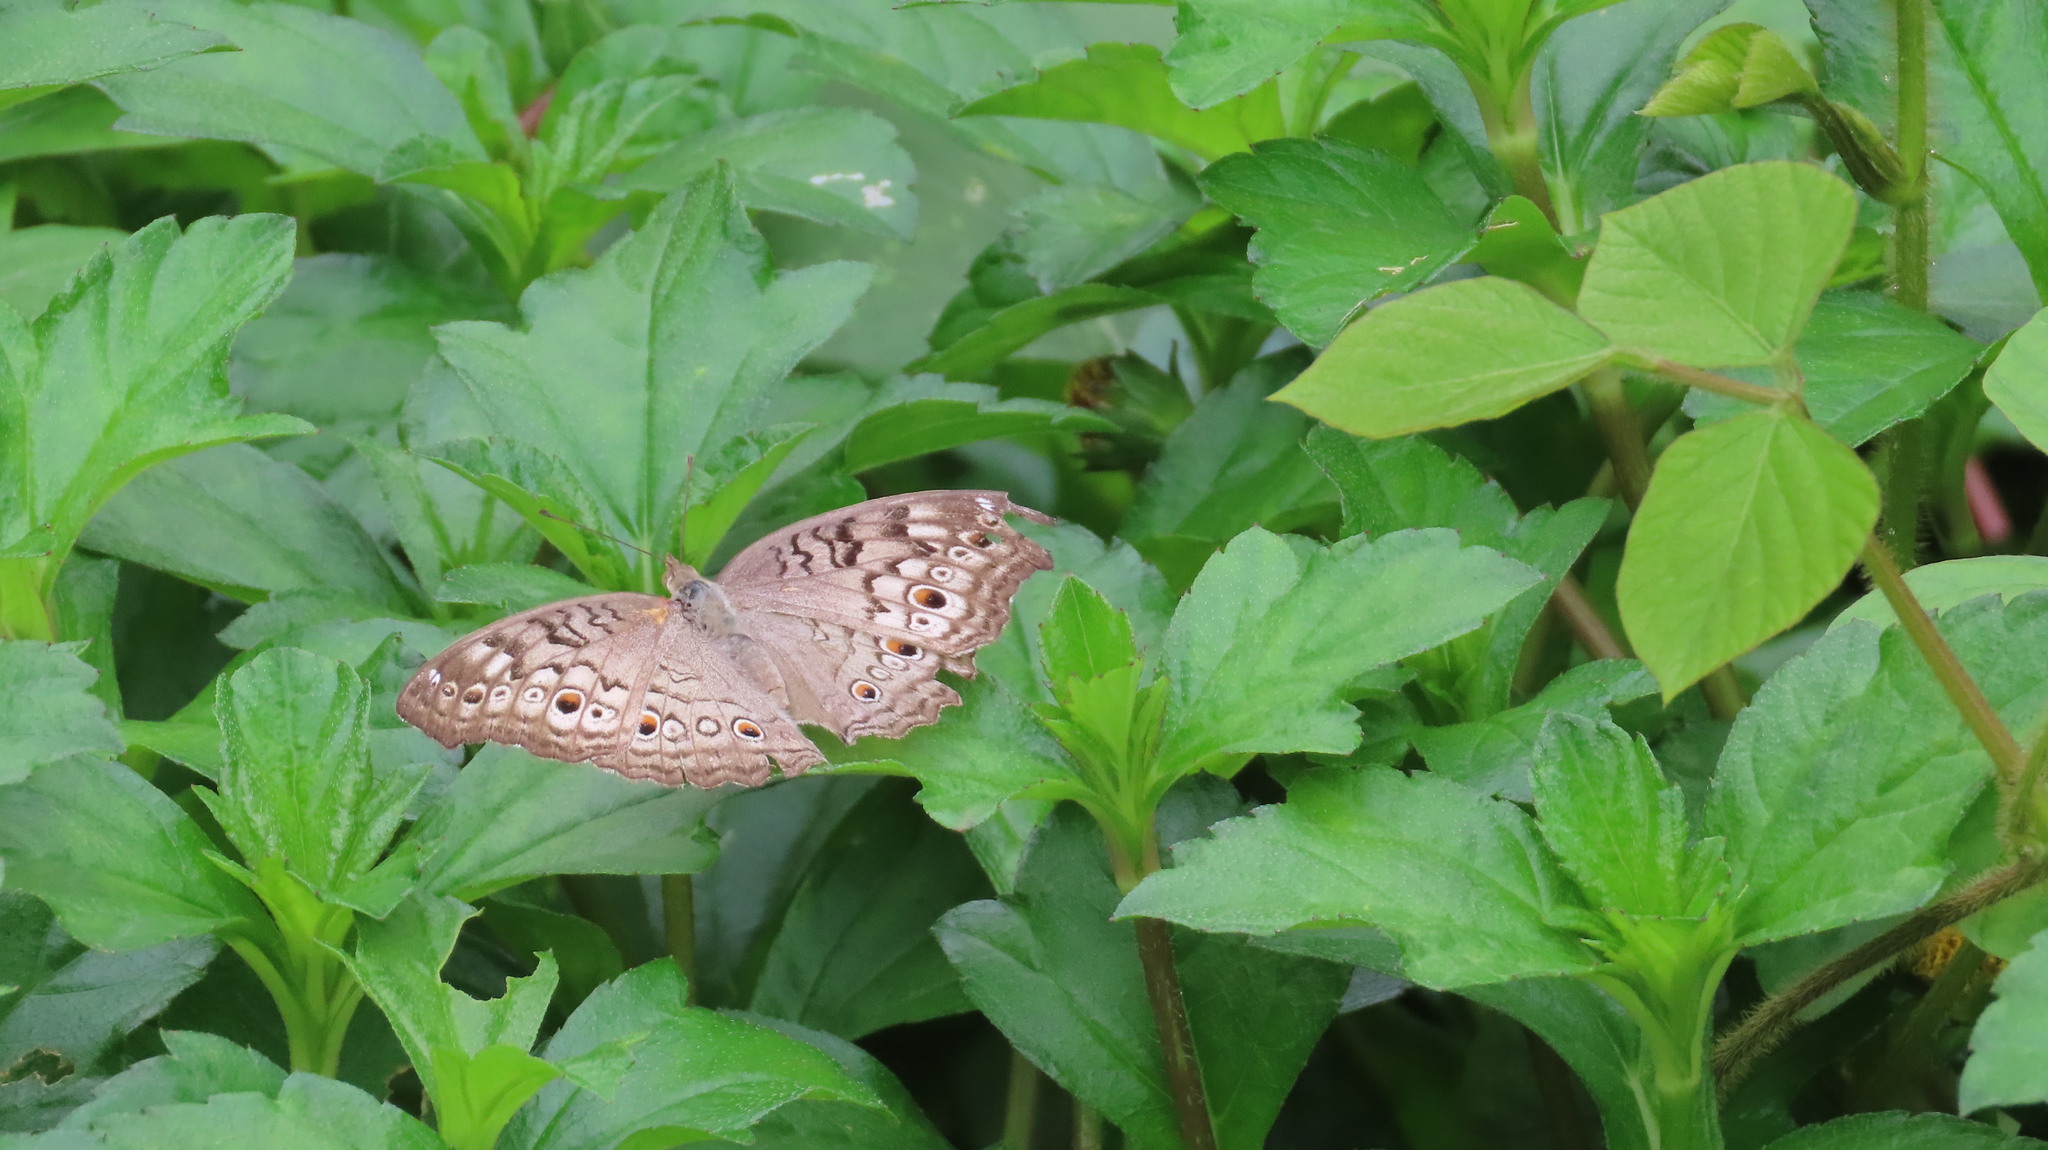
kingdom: Animalia
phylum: Arthropoda
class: Insecta
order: Lepidoptera
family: Nymphalidae
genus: Junonia
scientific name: Junonia atlites
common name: Grey pansy
